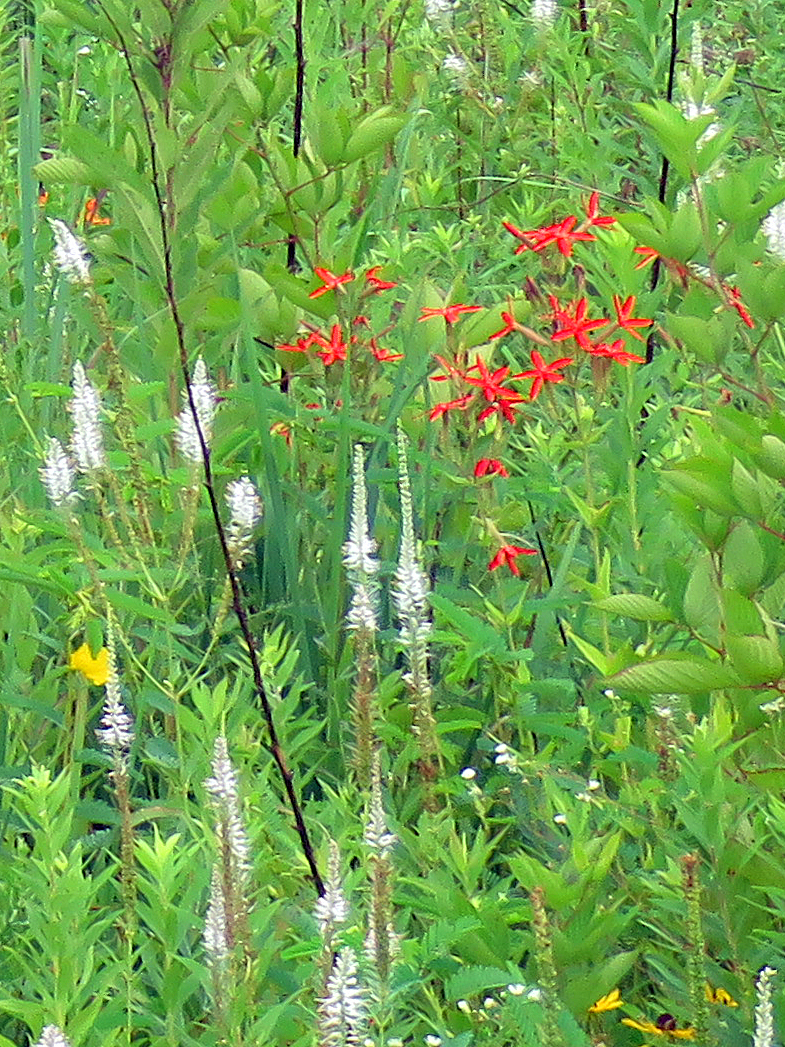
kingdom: Plantae
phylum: Tracheophyta
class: Magnoliopsida
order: Caryophyllales
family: Caryophyllaceae
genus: Silene
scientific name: Silene regia
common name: Royal catchfly
